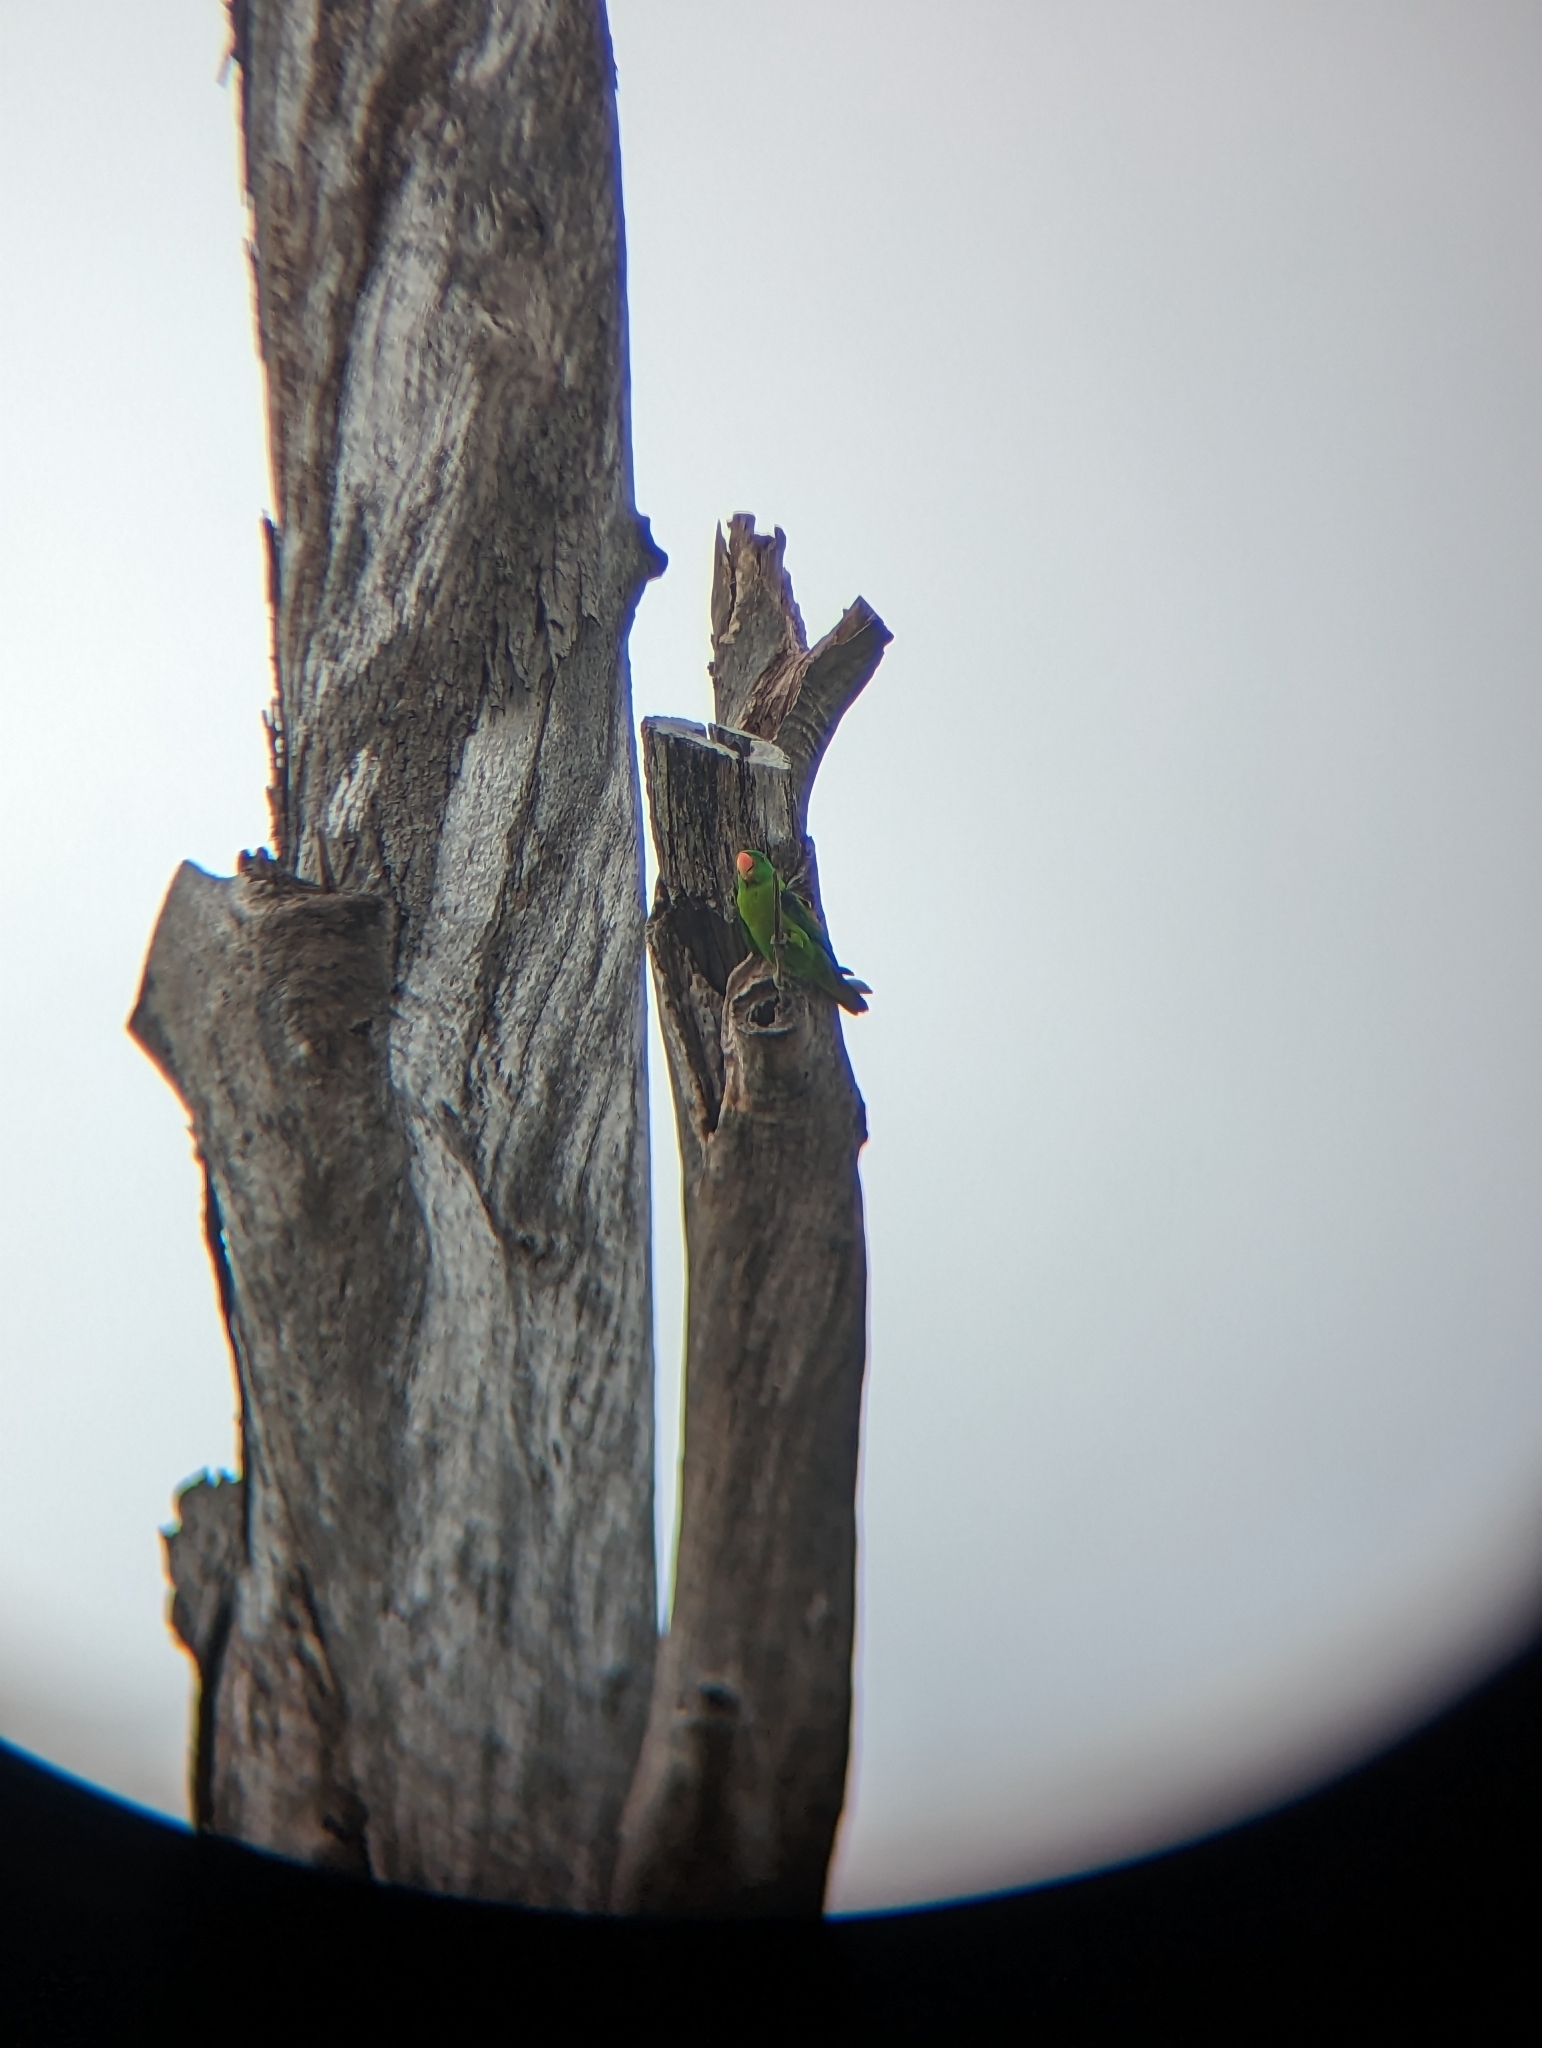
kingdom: Animalia
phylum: Chordata
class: Aves
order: Psittaciformes
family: Psittacidae
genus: Tanygnathus
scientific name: Tanygnathus lucionensis
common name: Blue-naped parrot
